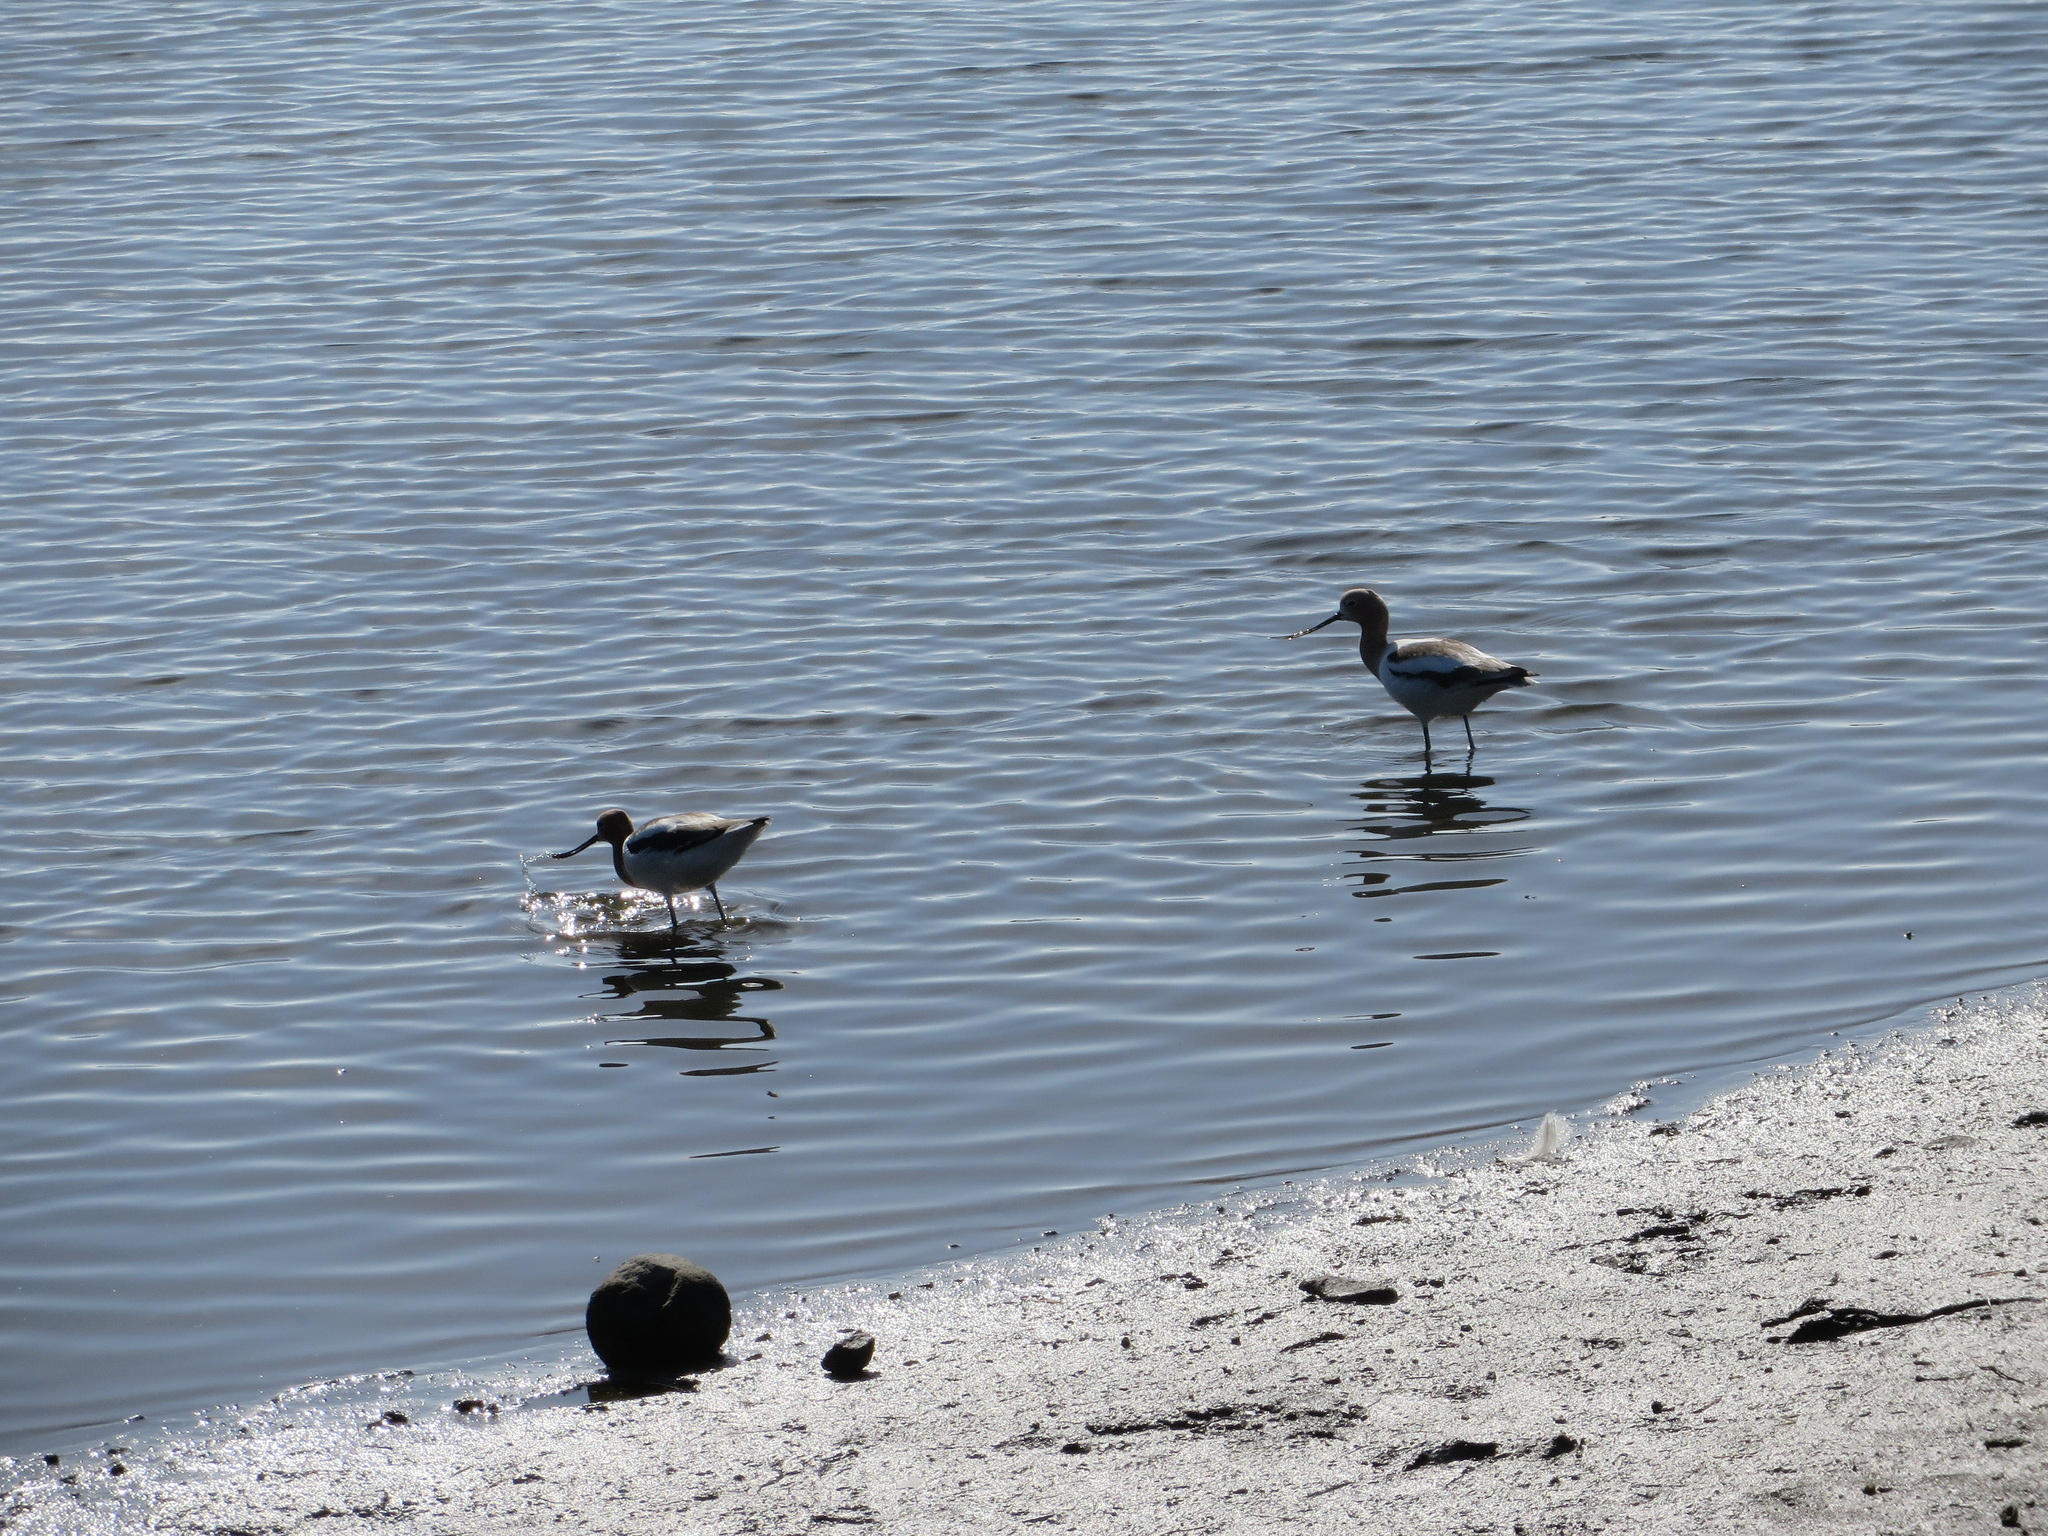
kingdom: Animalia
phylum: Chordata
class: Aves
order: Charadriiformes
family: Recurvirostridae
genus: Recurvirostra
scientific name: Recurvirostra americana
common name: American avocet
